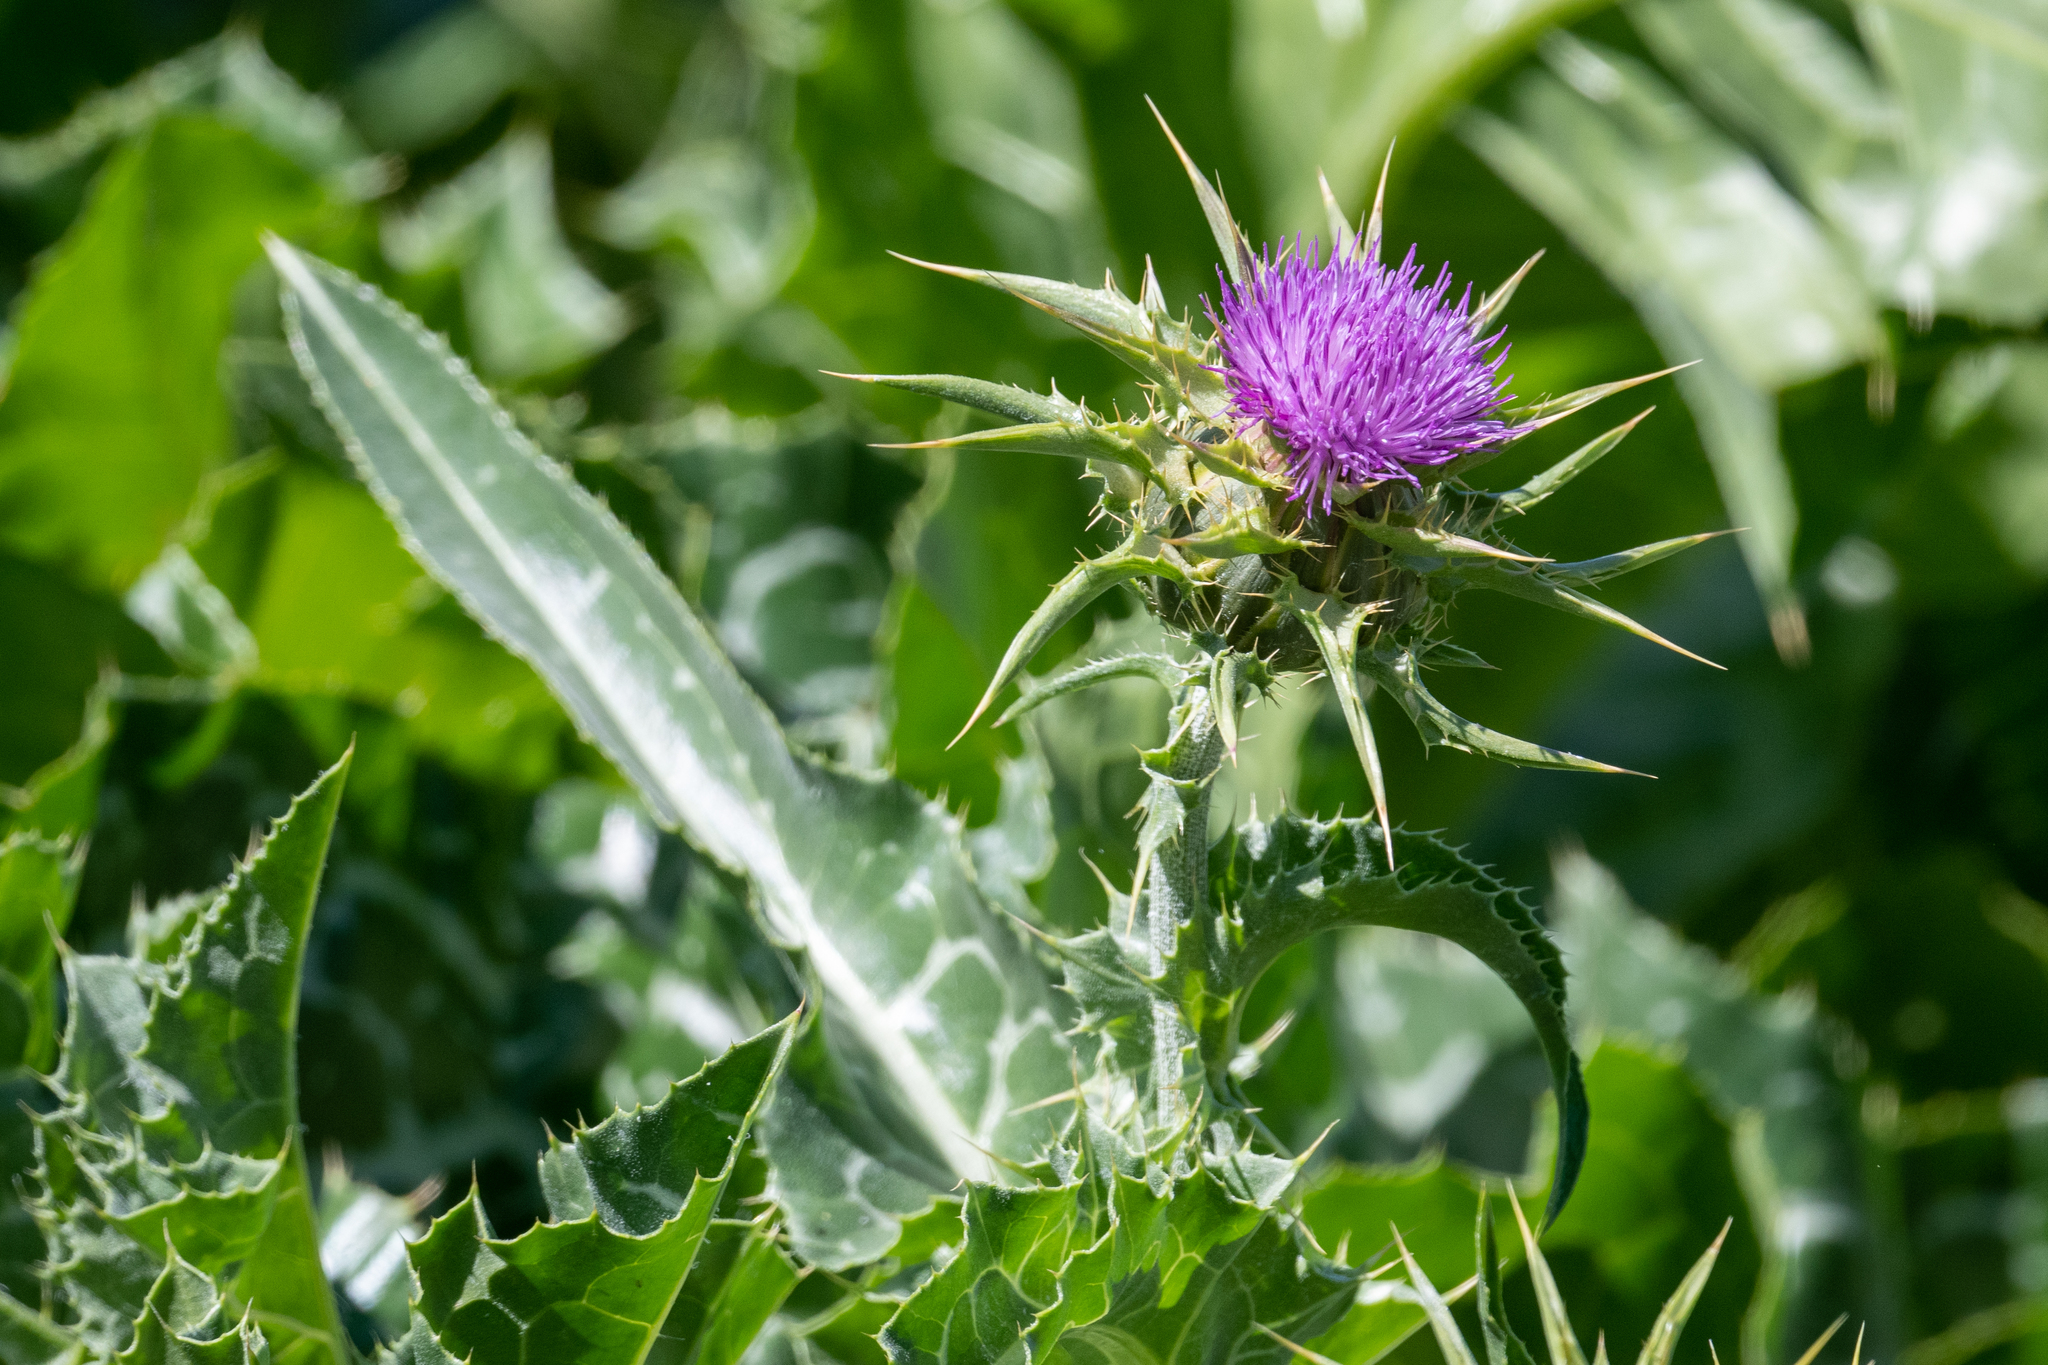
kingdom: Plantae
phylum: Tracheophyta
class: Magnoliopsida
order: Asterales
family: Asteraceae
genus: Silybum
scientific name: Silybum marianum
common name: Milk thistle
